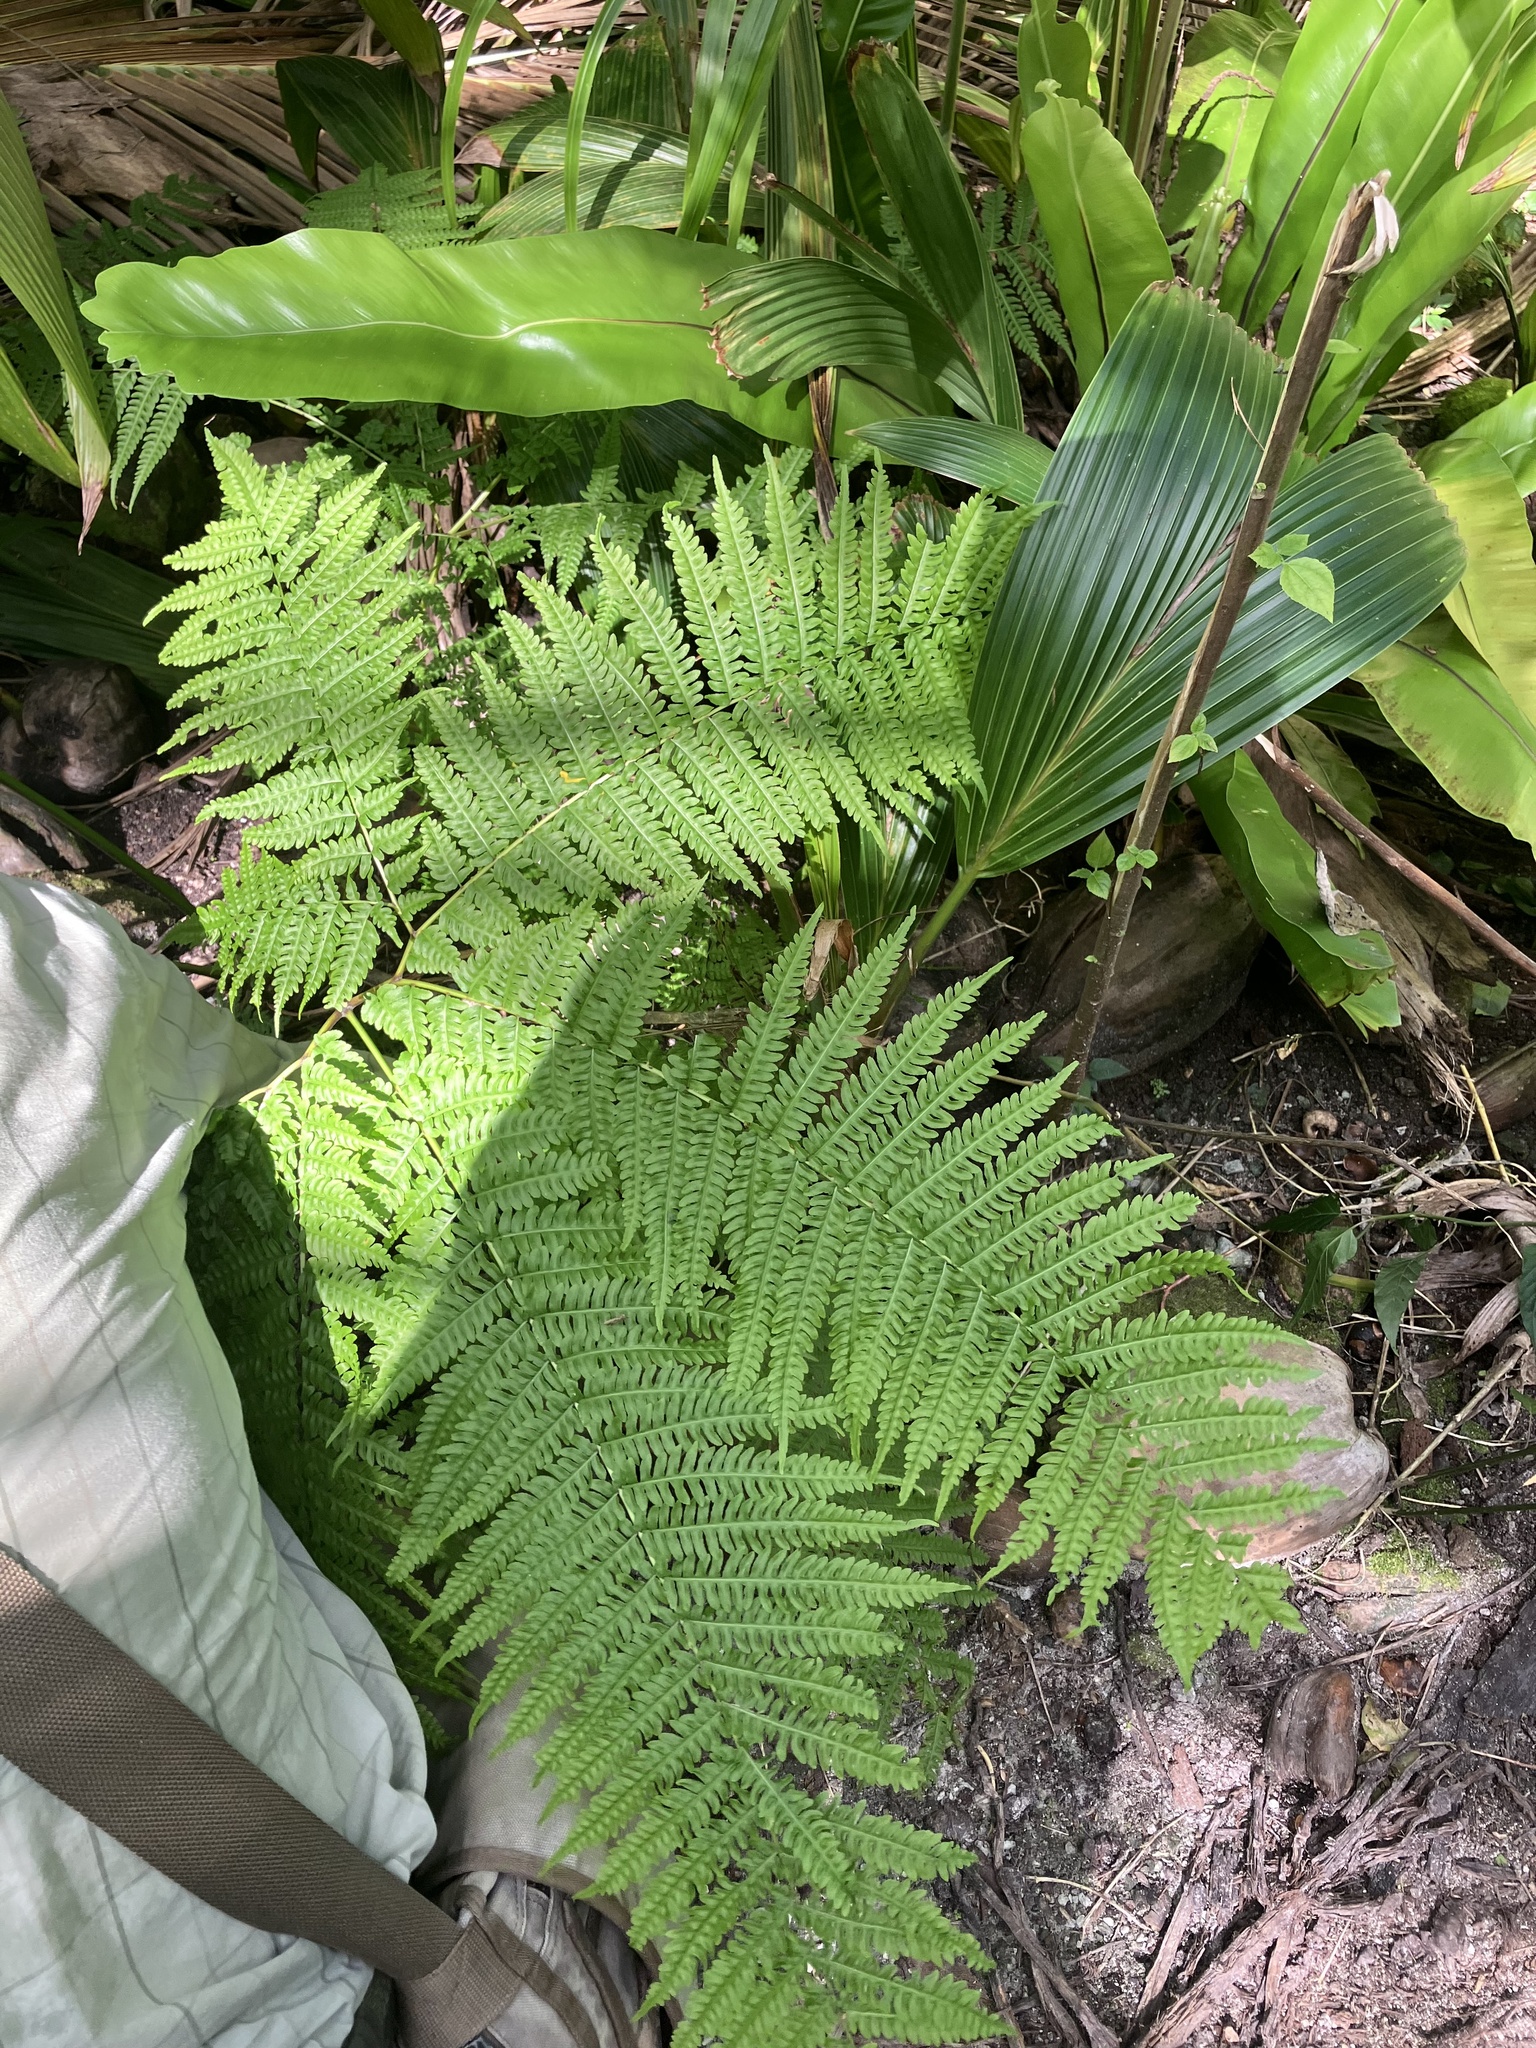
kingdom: Plantae
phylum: Tracheophyta
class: Polypodiopsida
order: Polypodiales
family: Pteridaceae
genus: Pteris
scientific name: Pteris tripartita
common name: Giant brake
